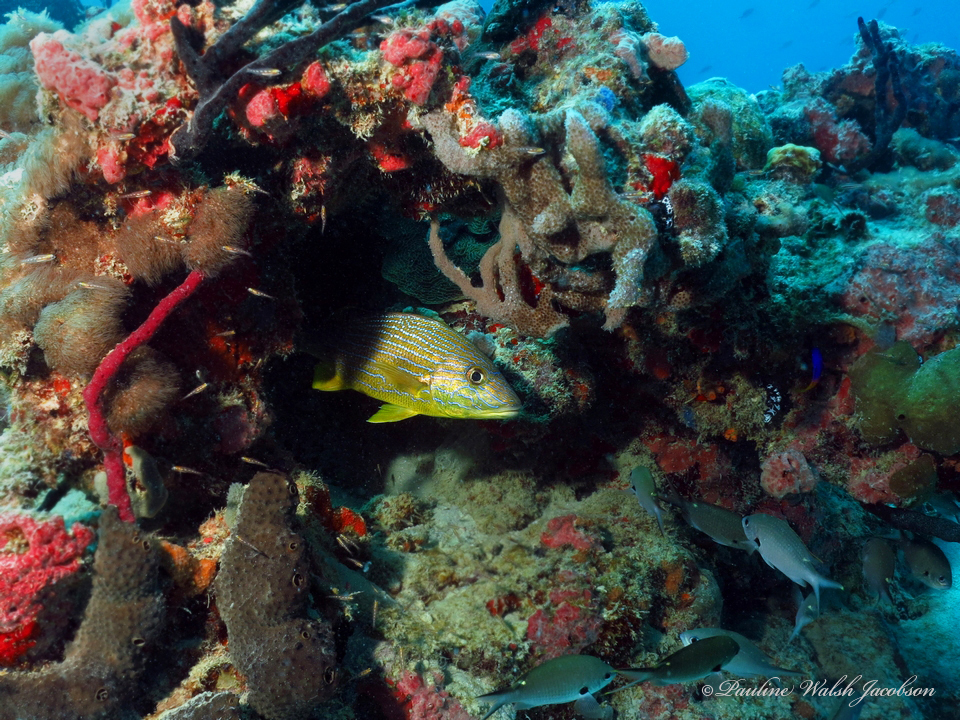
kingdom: Animalia
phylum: Chordata
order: Perciformes
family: Haemulidae
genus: Haemulon
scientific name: Haemulon sciurus
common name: Bluestriped grunt
